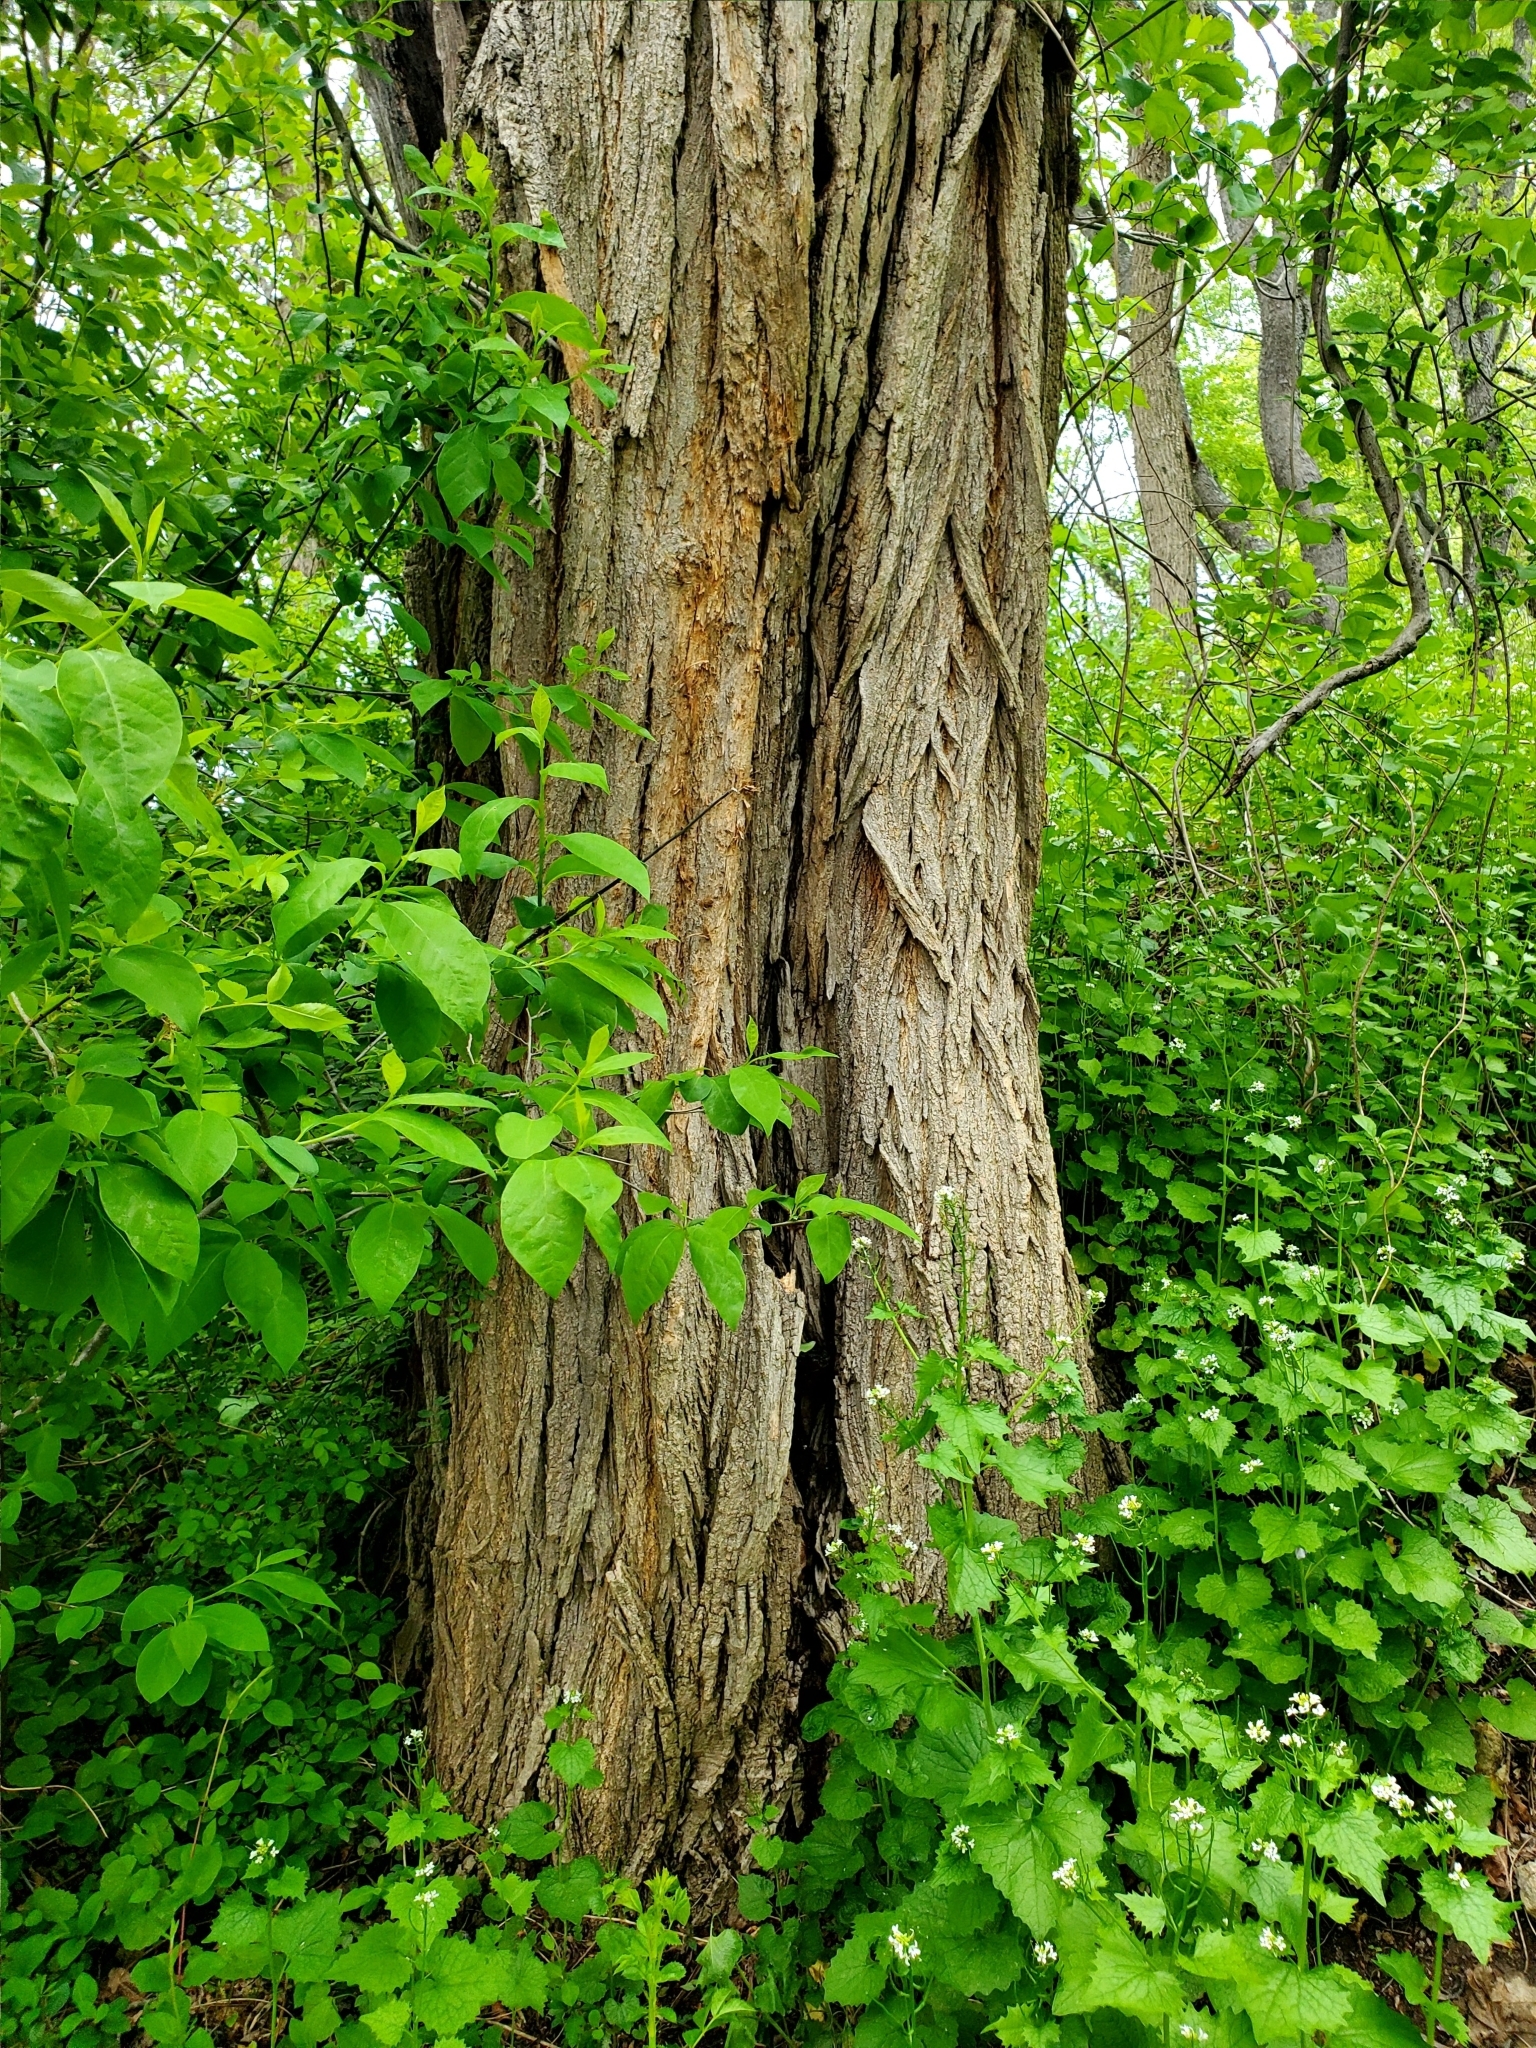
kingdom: Plantae
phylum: Tracheophyta
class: Magnoliopsida
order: Fabales
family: Fabaceae
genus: Robinia
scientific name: Robinia pseudoacacia
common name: Black locust
